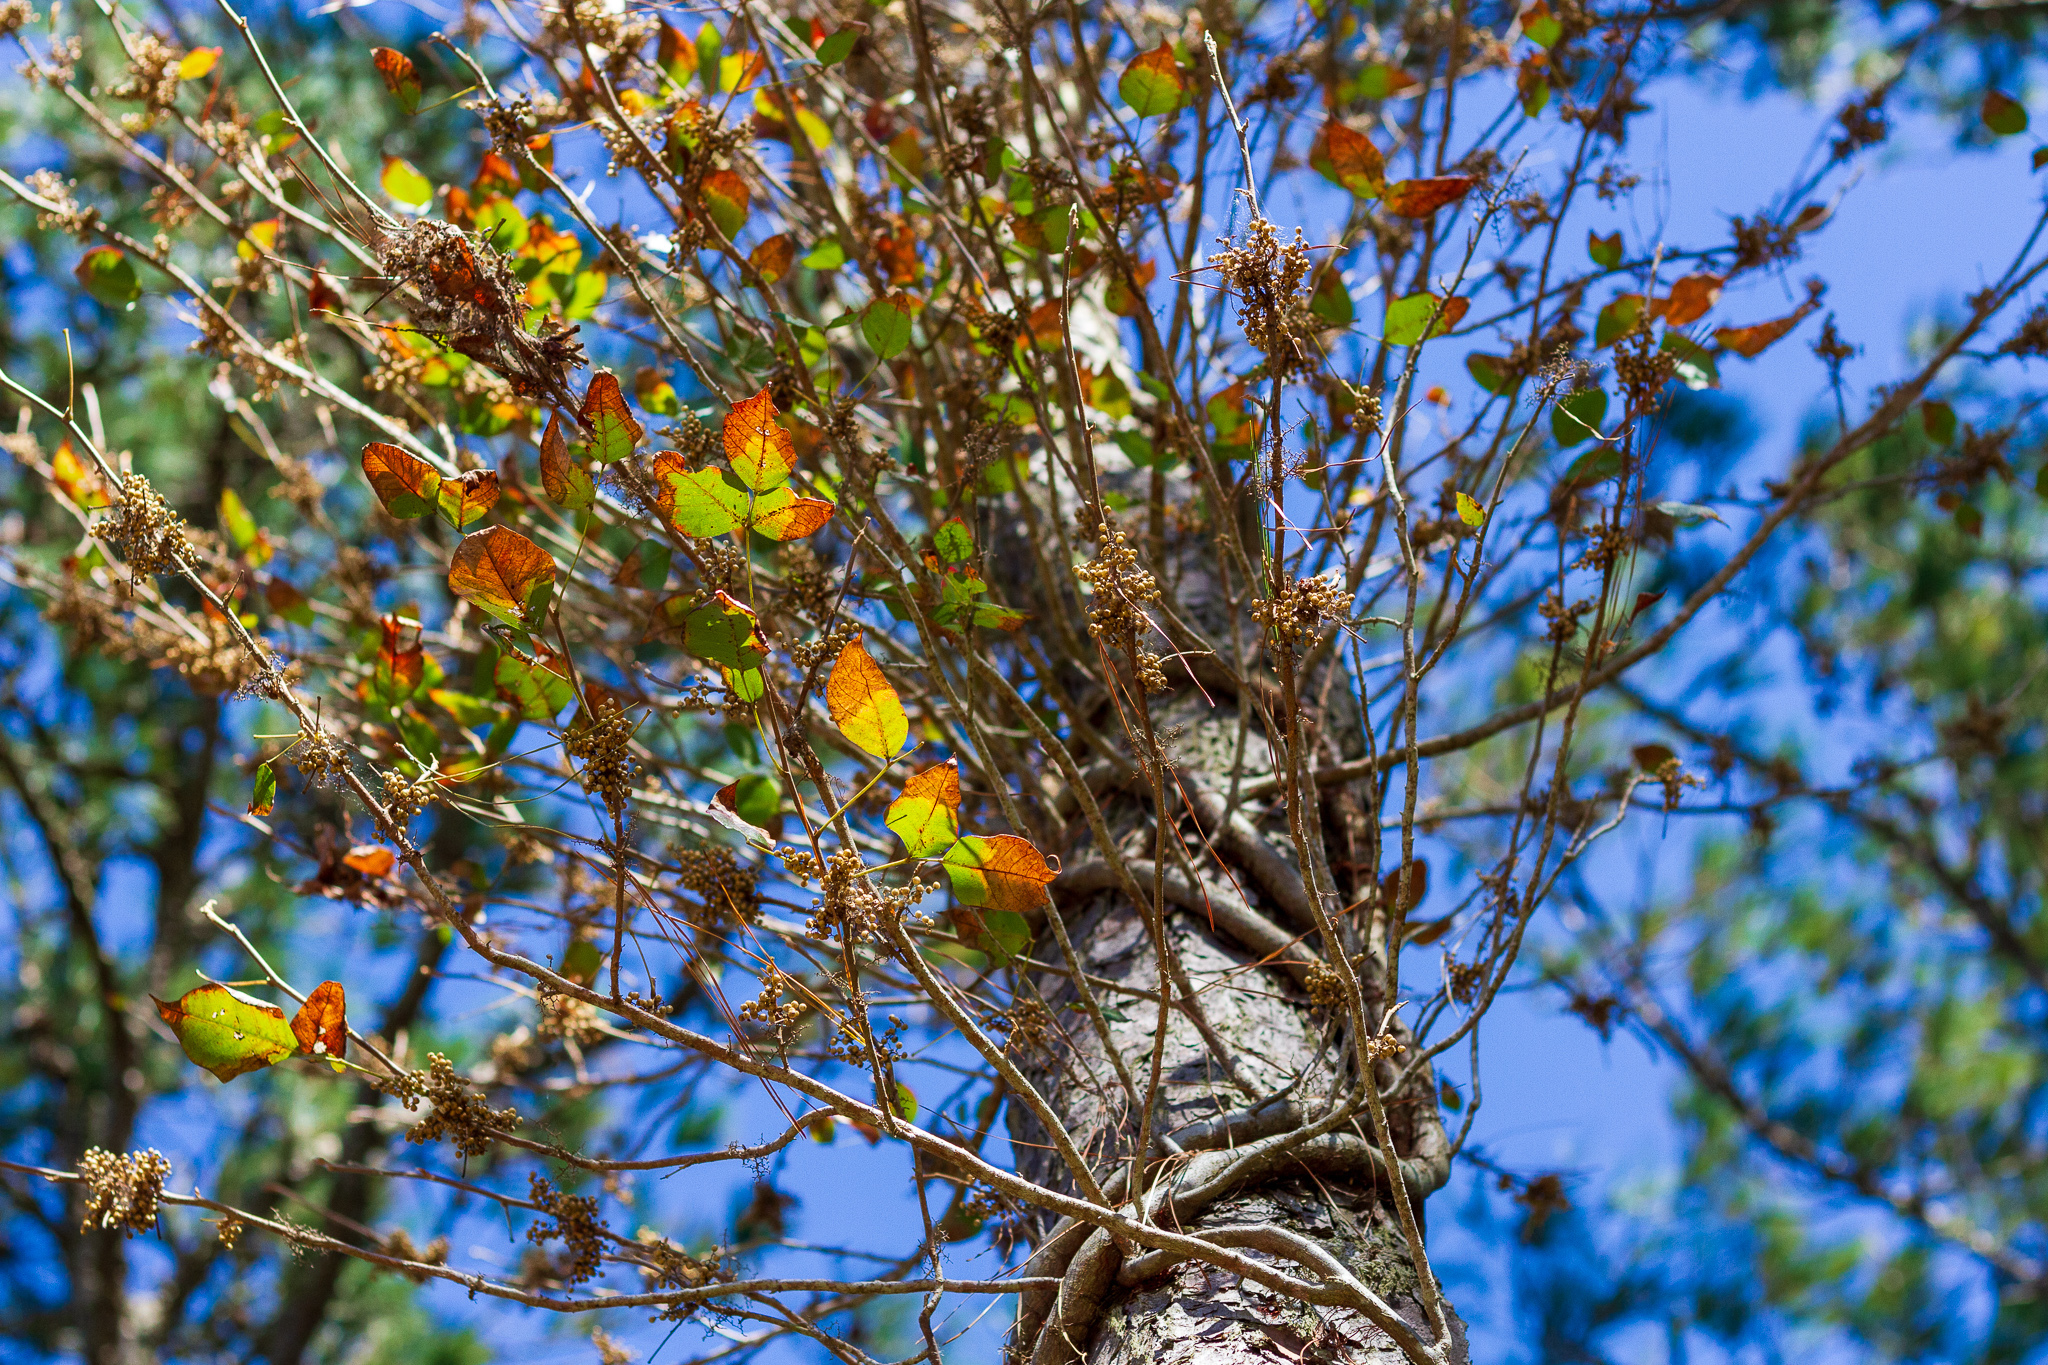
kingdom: Plantae
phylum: Tracheophyta
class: Magnoliopsida
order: Sapindales
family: Anacardiaceae
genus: Toxicodendron
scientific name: Toxicodendron radicans
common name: Poison ivy
